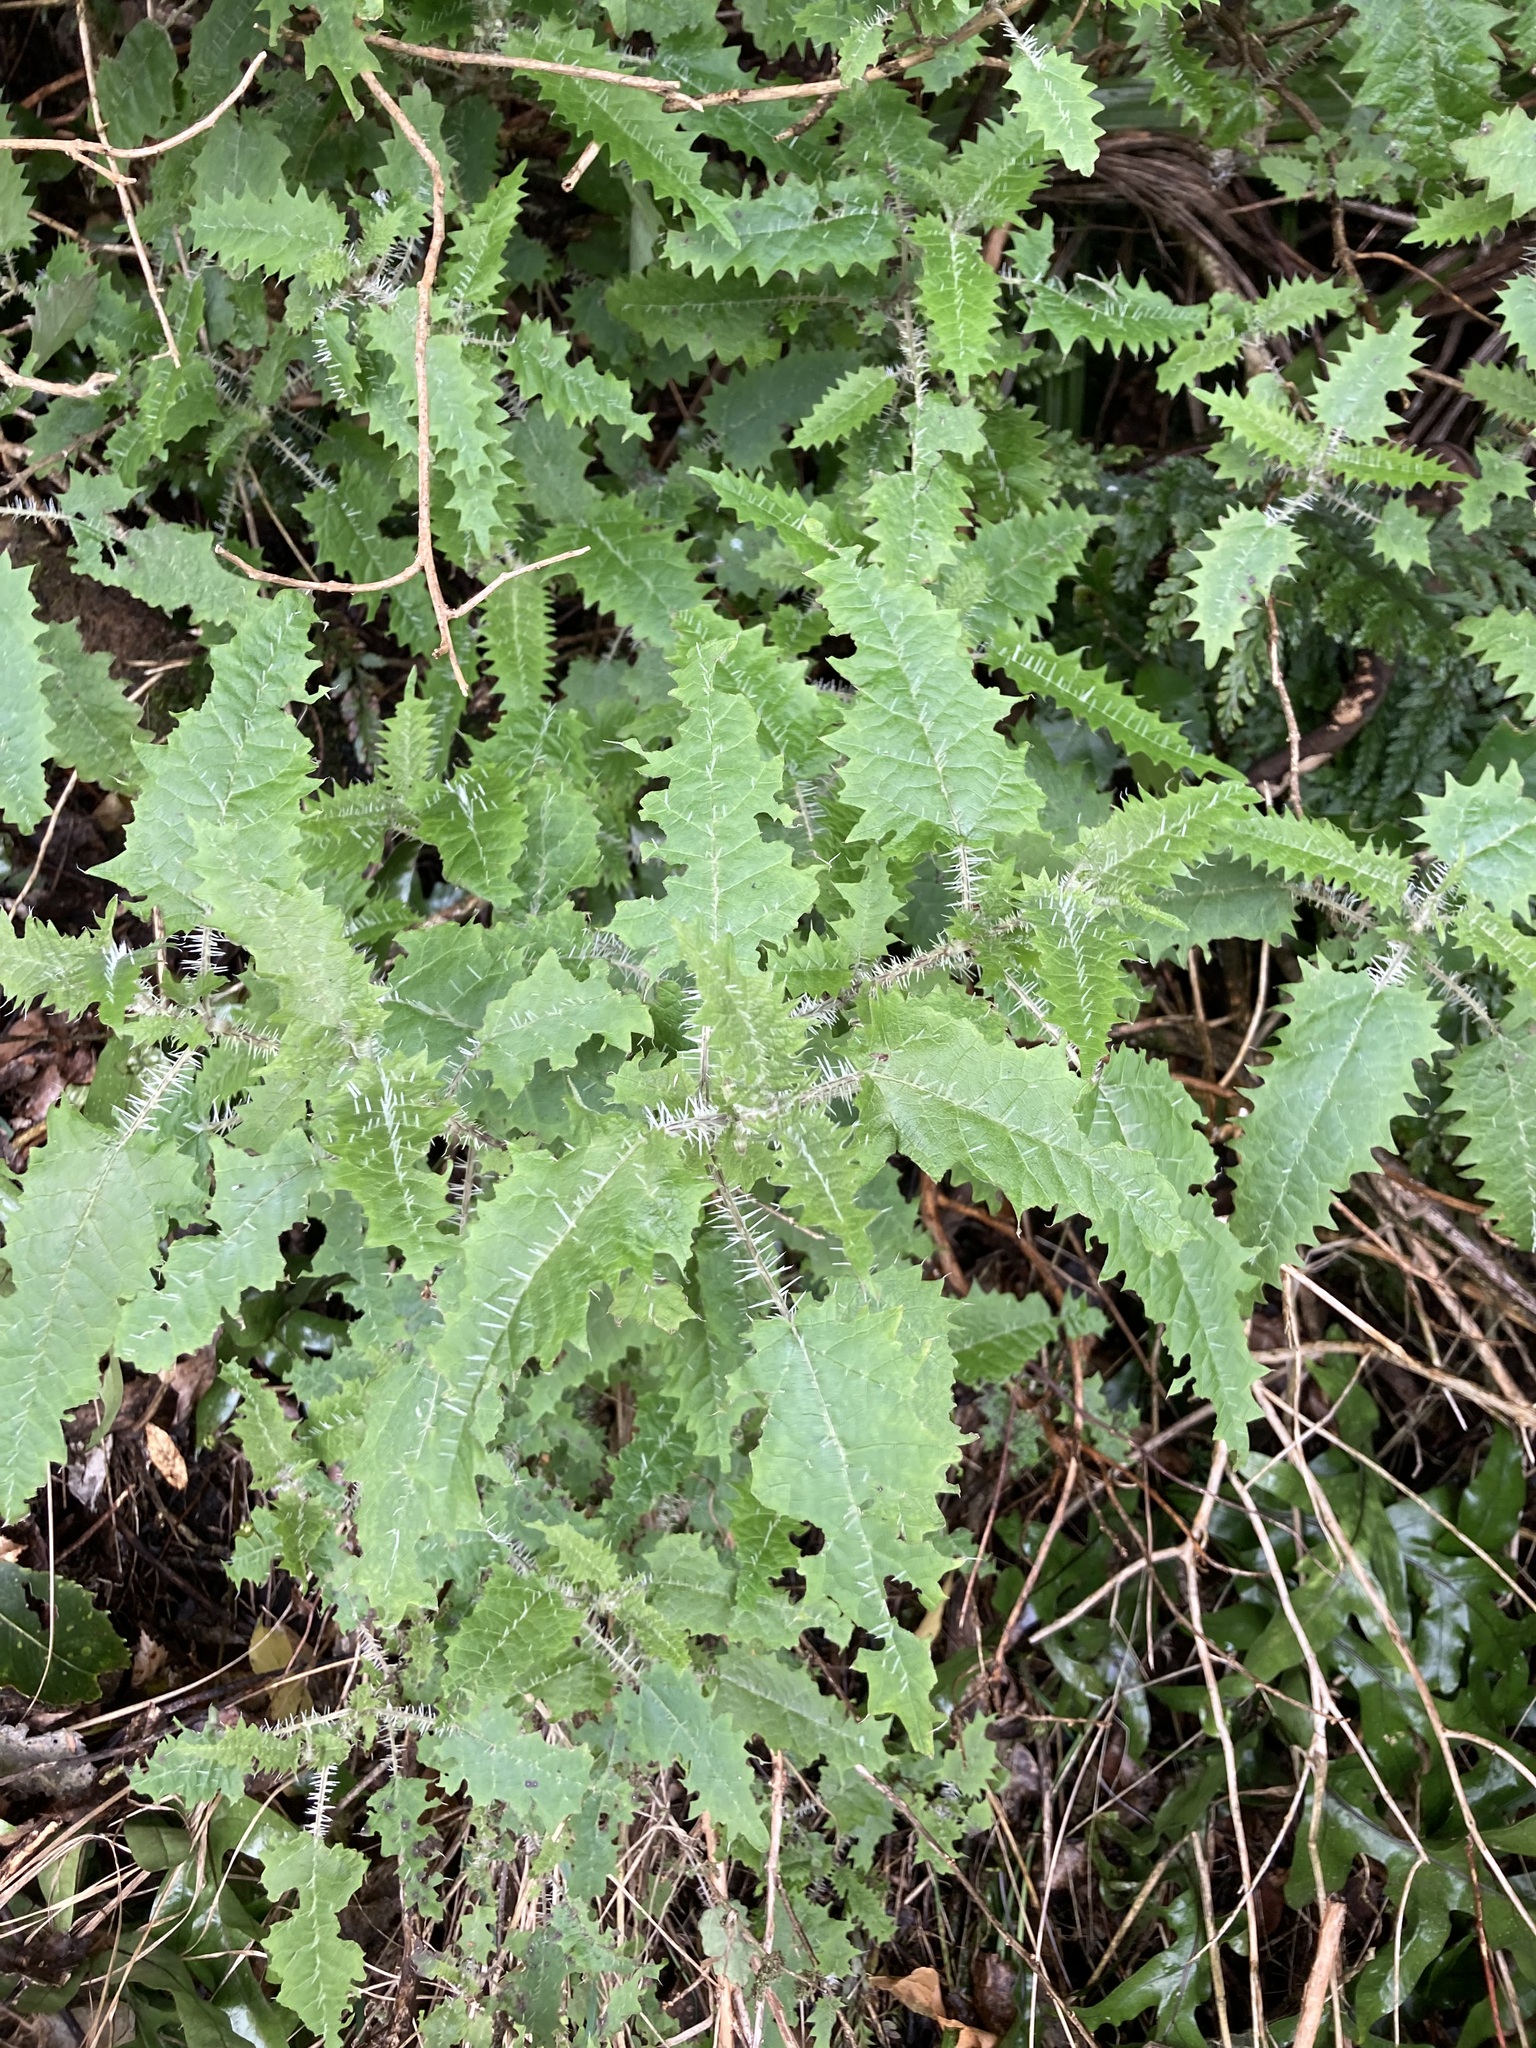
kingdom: Plantae
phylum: Tracheophyta
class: Magnoliopsida
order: Rosales
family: Urticaceae
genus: Urtica
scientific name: Urtica ferox
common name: Tree nettle
